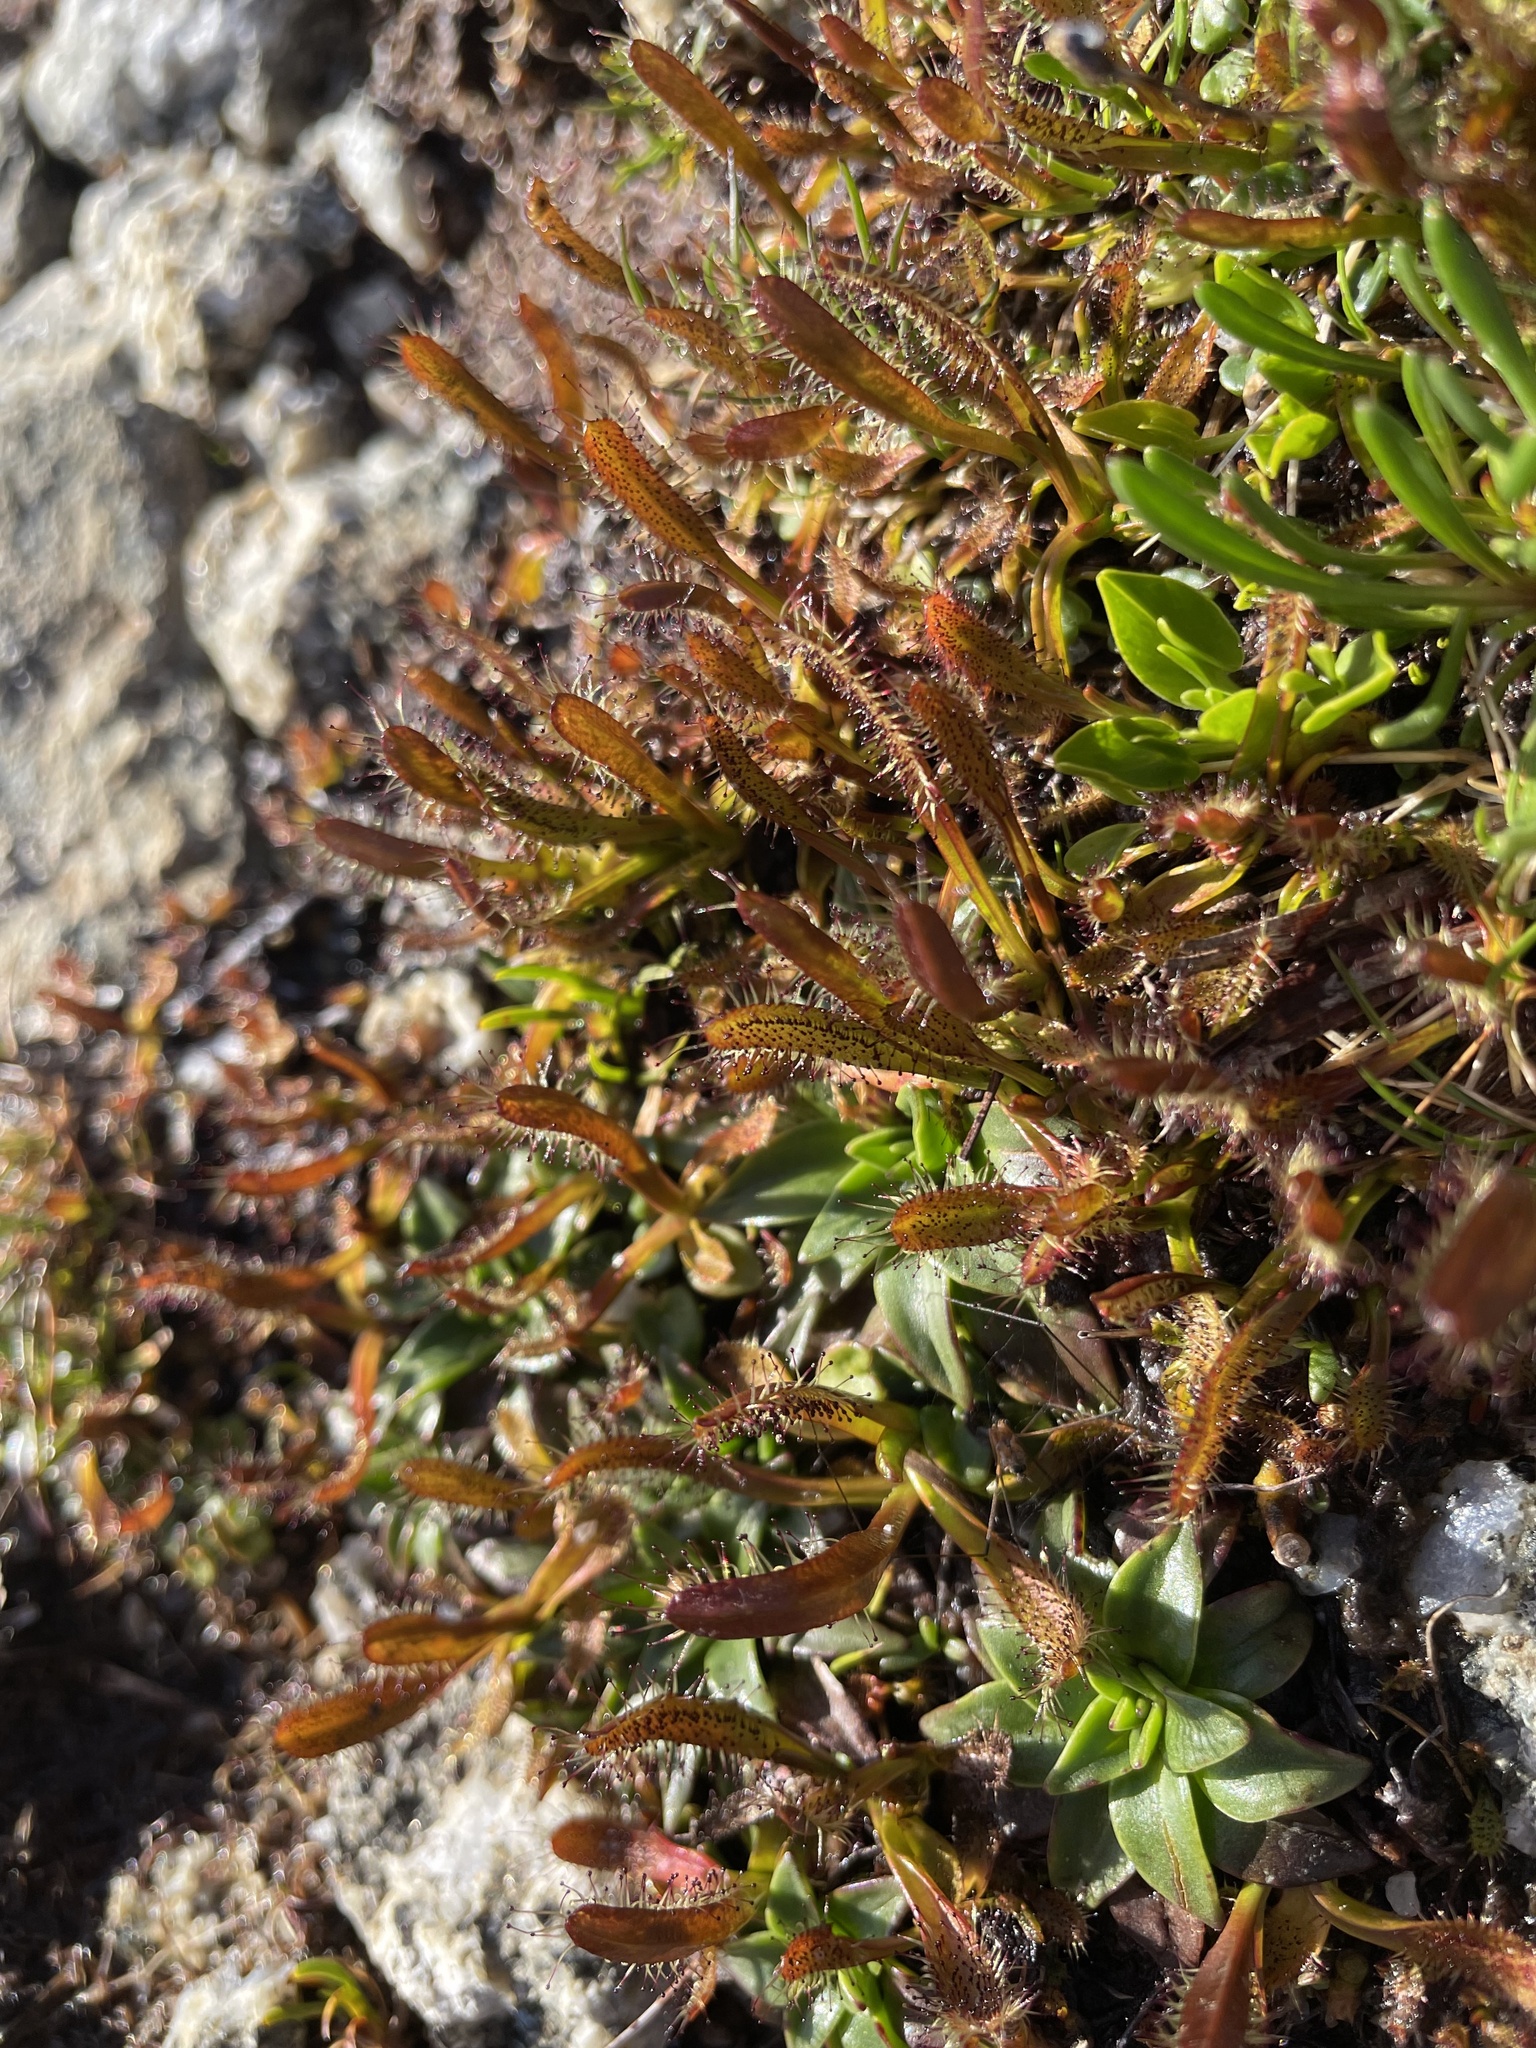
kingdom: Plantae
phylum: Tracheophyta
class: Magnoliopsida
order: Caryophyllales
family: Droseraceae
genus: Drosera
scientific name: Drosera arcturi
